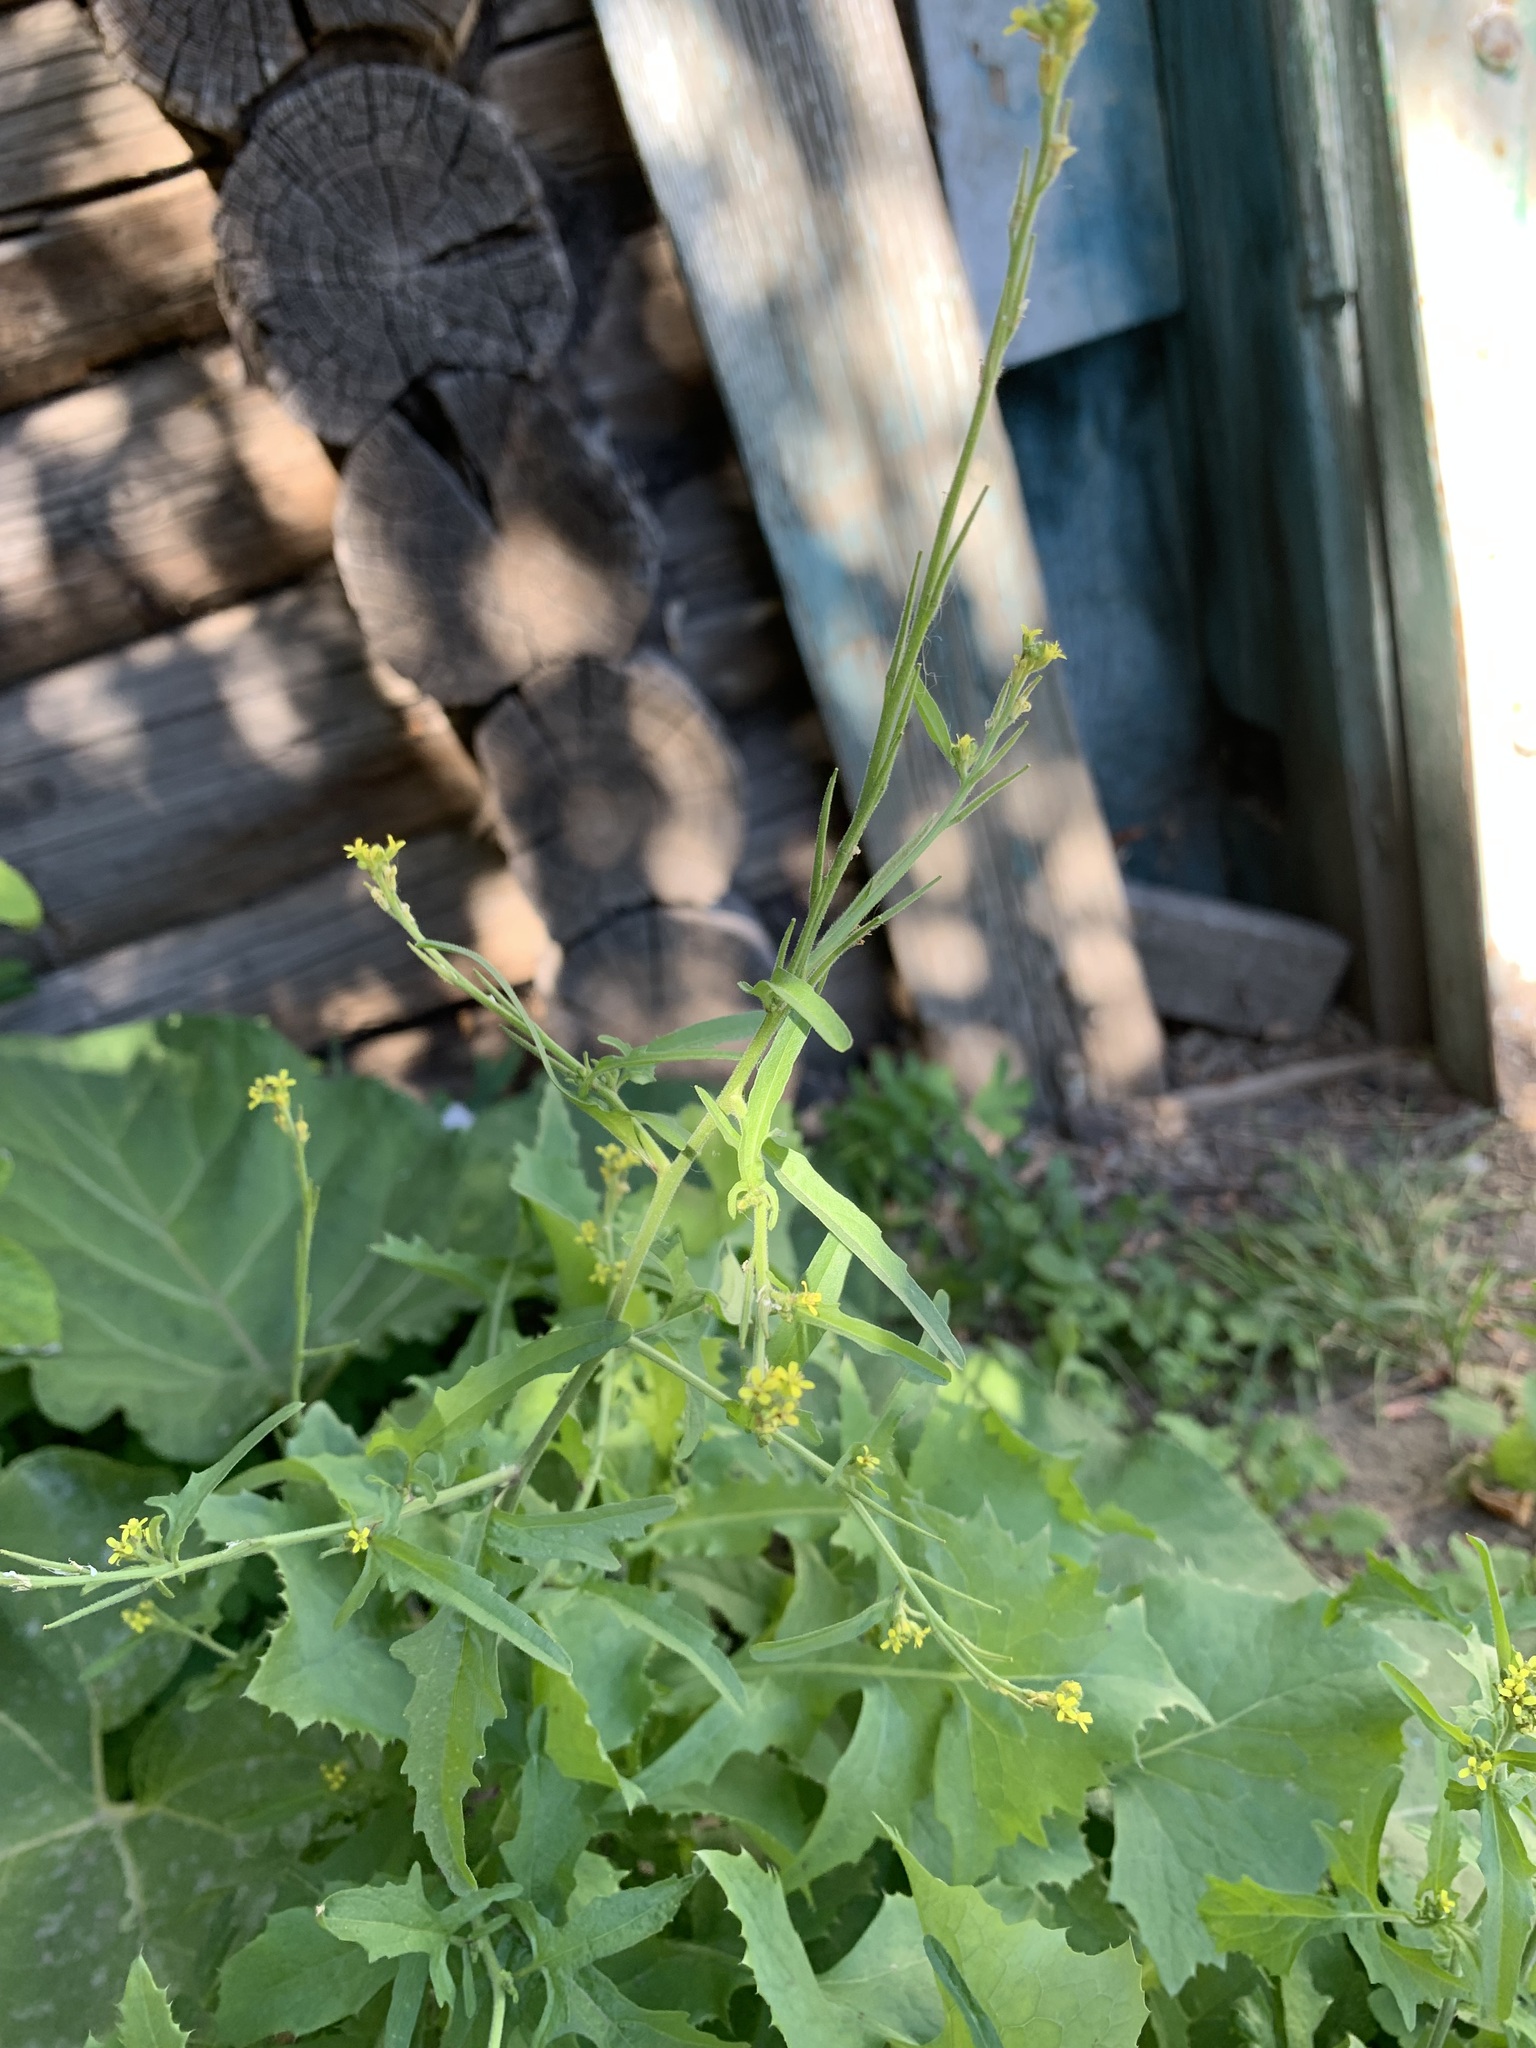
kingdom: Plantae
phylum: Tracheophyta
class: Magnoliopsida
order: Brassicales
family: Brassicaceae
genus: Sisymbrium
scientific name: Sisymbrium officinale
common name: Hedge mustard
